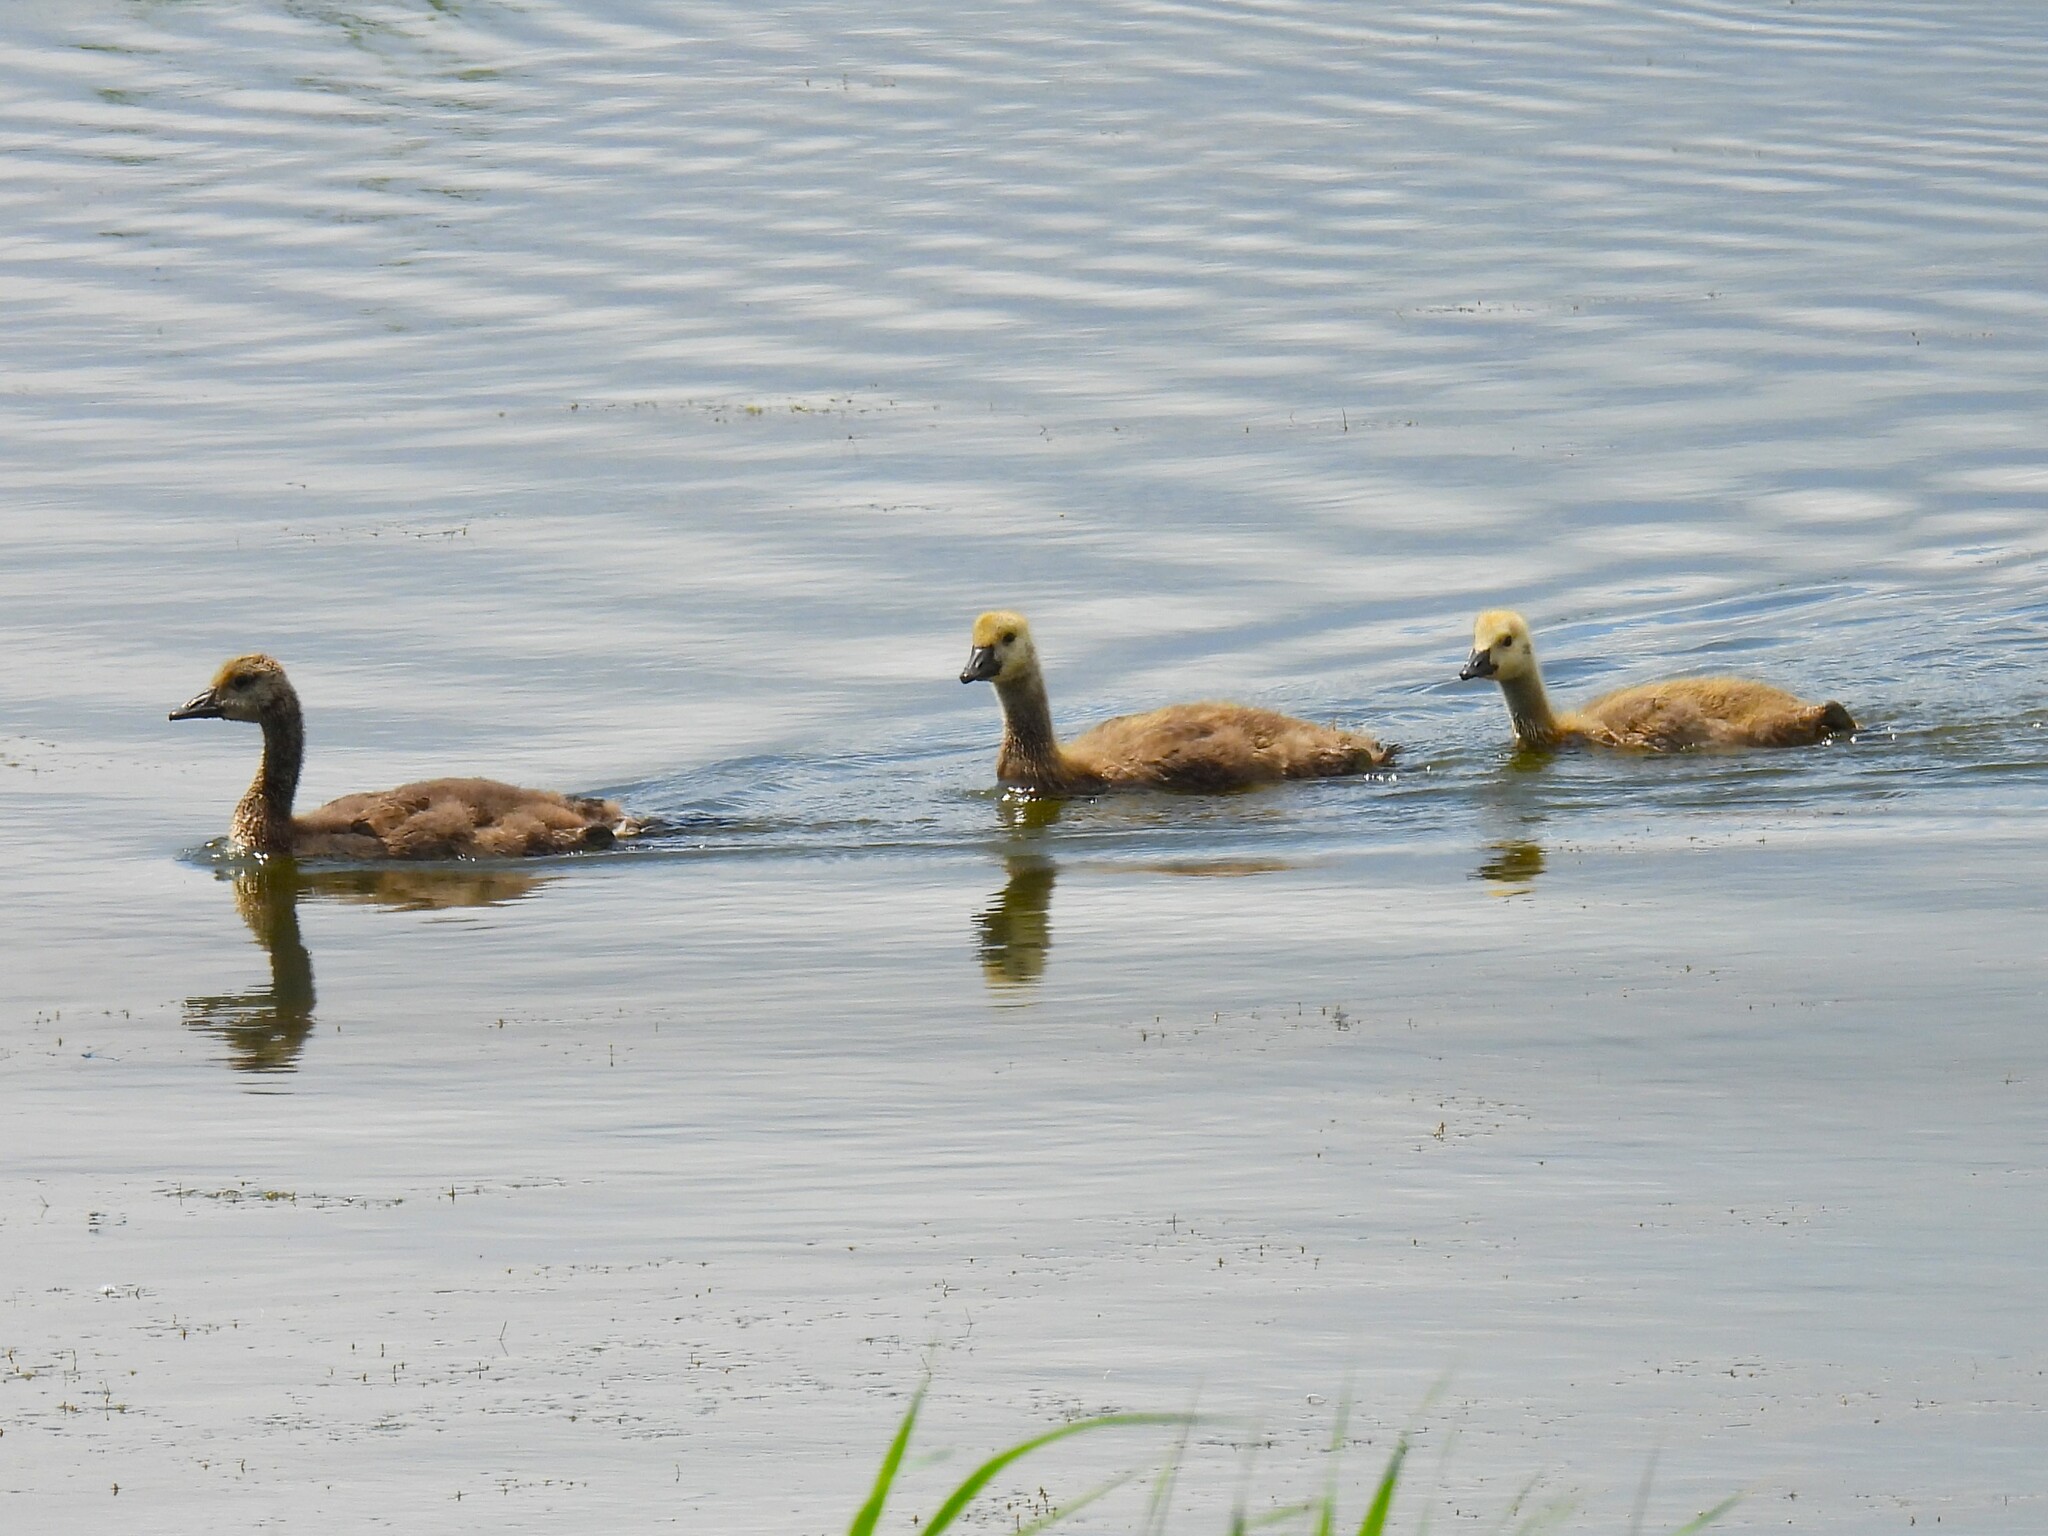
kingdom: Animalia
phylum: Chordata
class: Aves
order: Anseriformes
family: Anatidae
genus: Branta
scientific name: Branta canadensis
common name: Canada goose
